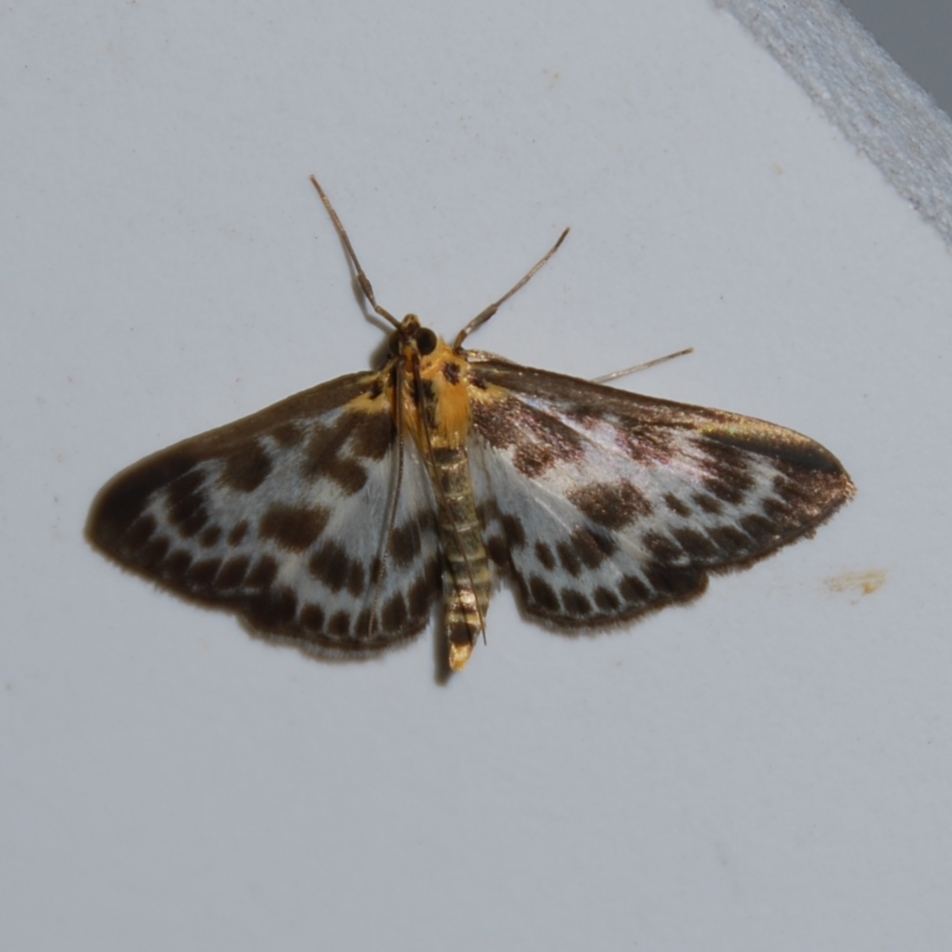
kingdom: Animalia
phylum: Arthropoda
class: Insecta
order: Lepidoptera
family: Crambidae
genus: Anania
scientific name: Anania hortulata
